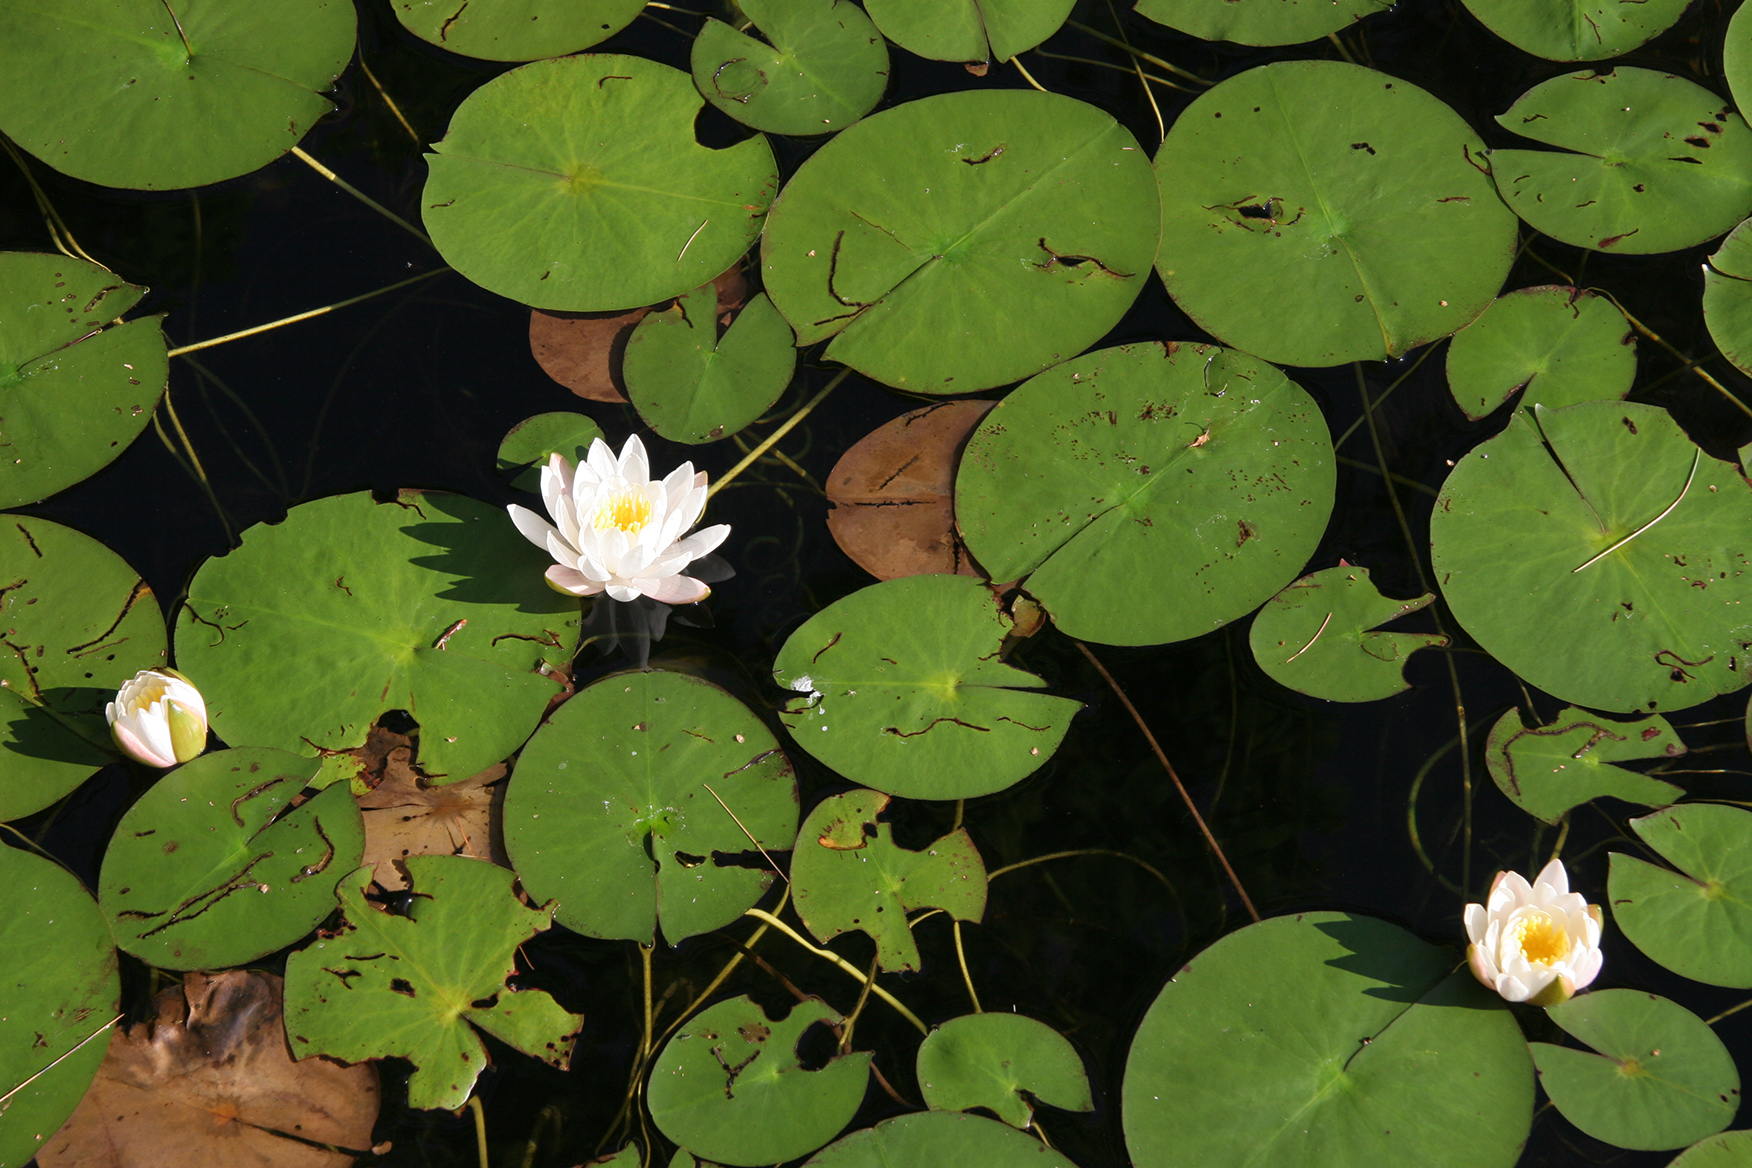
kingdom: Plantae
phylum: Tracheophyta
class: Magnoliopsida
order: Nymphaeales
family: Nymphaeaceae
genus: Nymphaea
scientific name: Nymphaea odorata
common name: Fragrant water-lily
